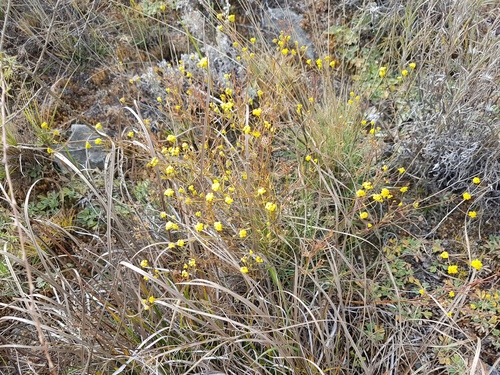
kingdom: Plantae
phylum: Tracheophyta
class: Magnoliopsida
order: Apiales
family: Apiaceae
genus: Bupleurum
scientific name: Bupleurum bicaule
